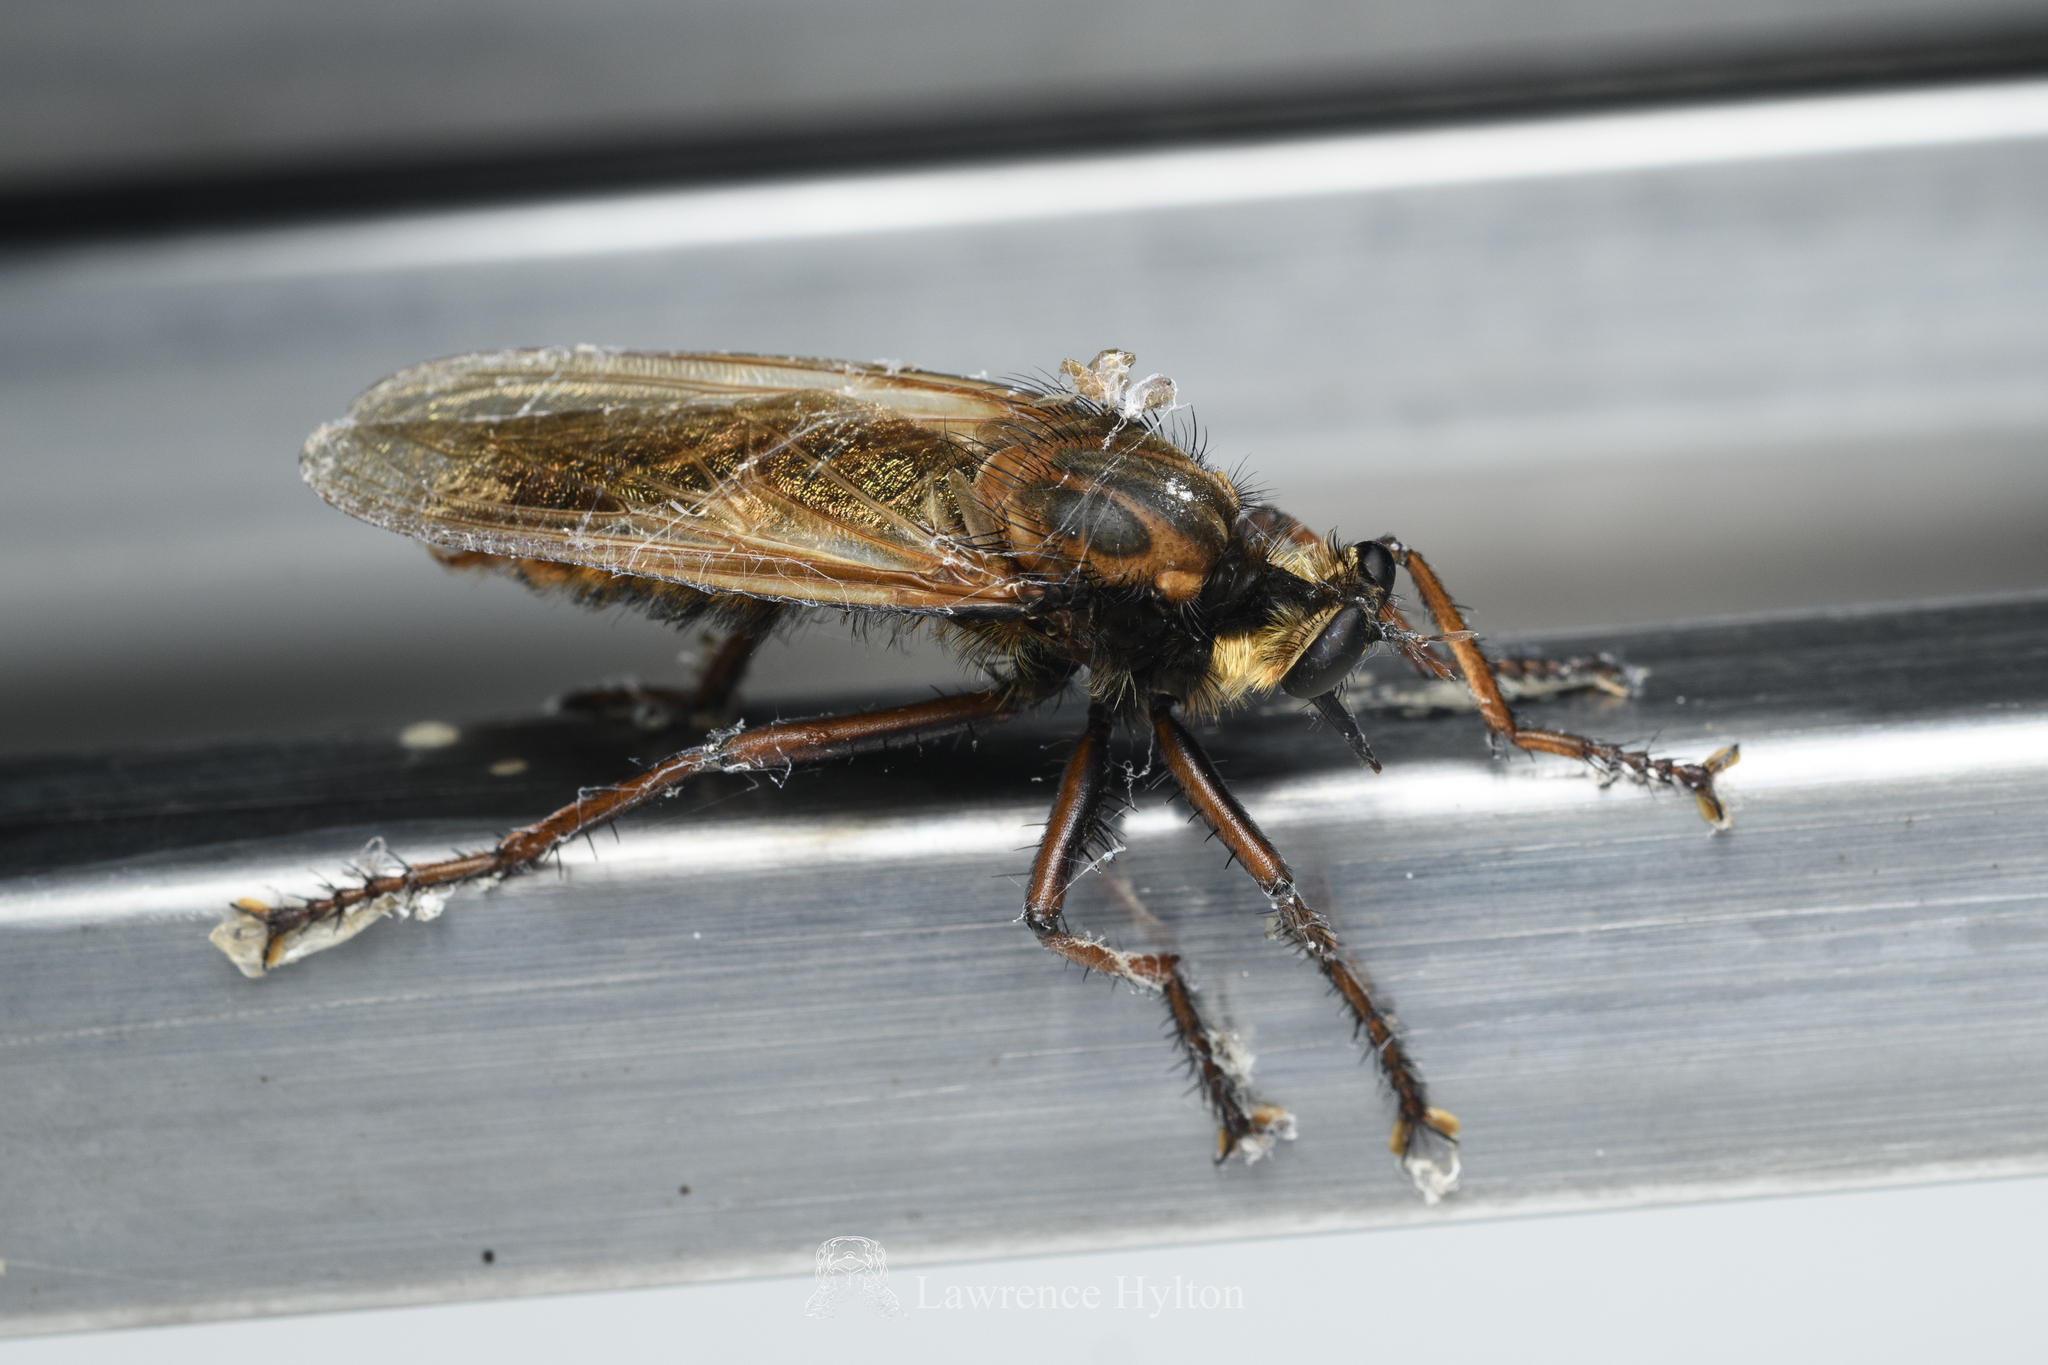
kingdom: Animalia
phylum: Arthropoda
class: Insecta
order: Diptera
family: Asilidae
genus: Microstylum
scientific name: Microstylum dux
